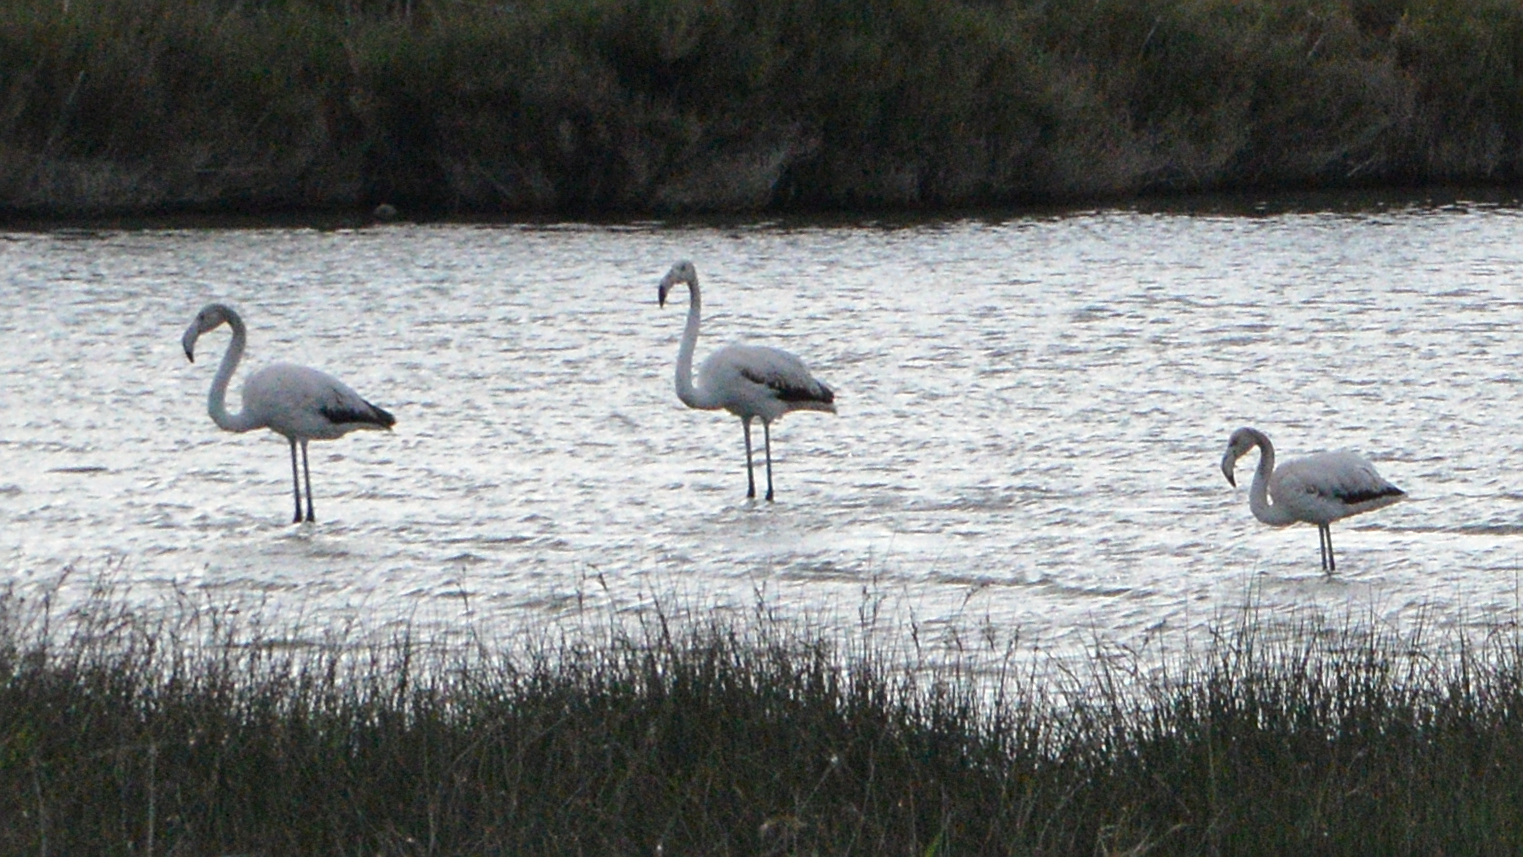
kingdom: Animalia
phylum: Chordata
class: Aves
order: Phoenicopteriformes
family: Phoenicopteridae
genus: Phoenicopterus
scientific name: Phoenicopterus roseus
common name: Greater flamingo
